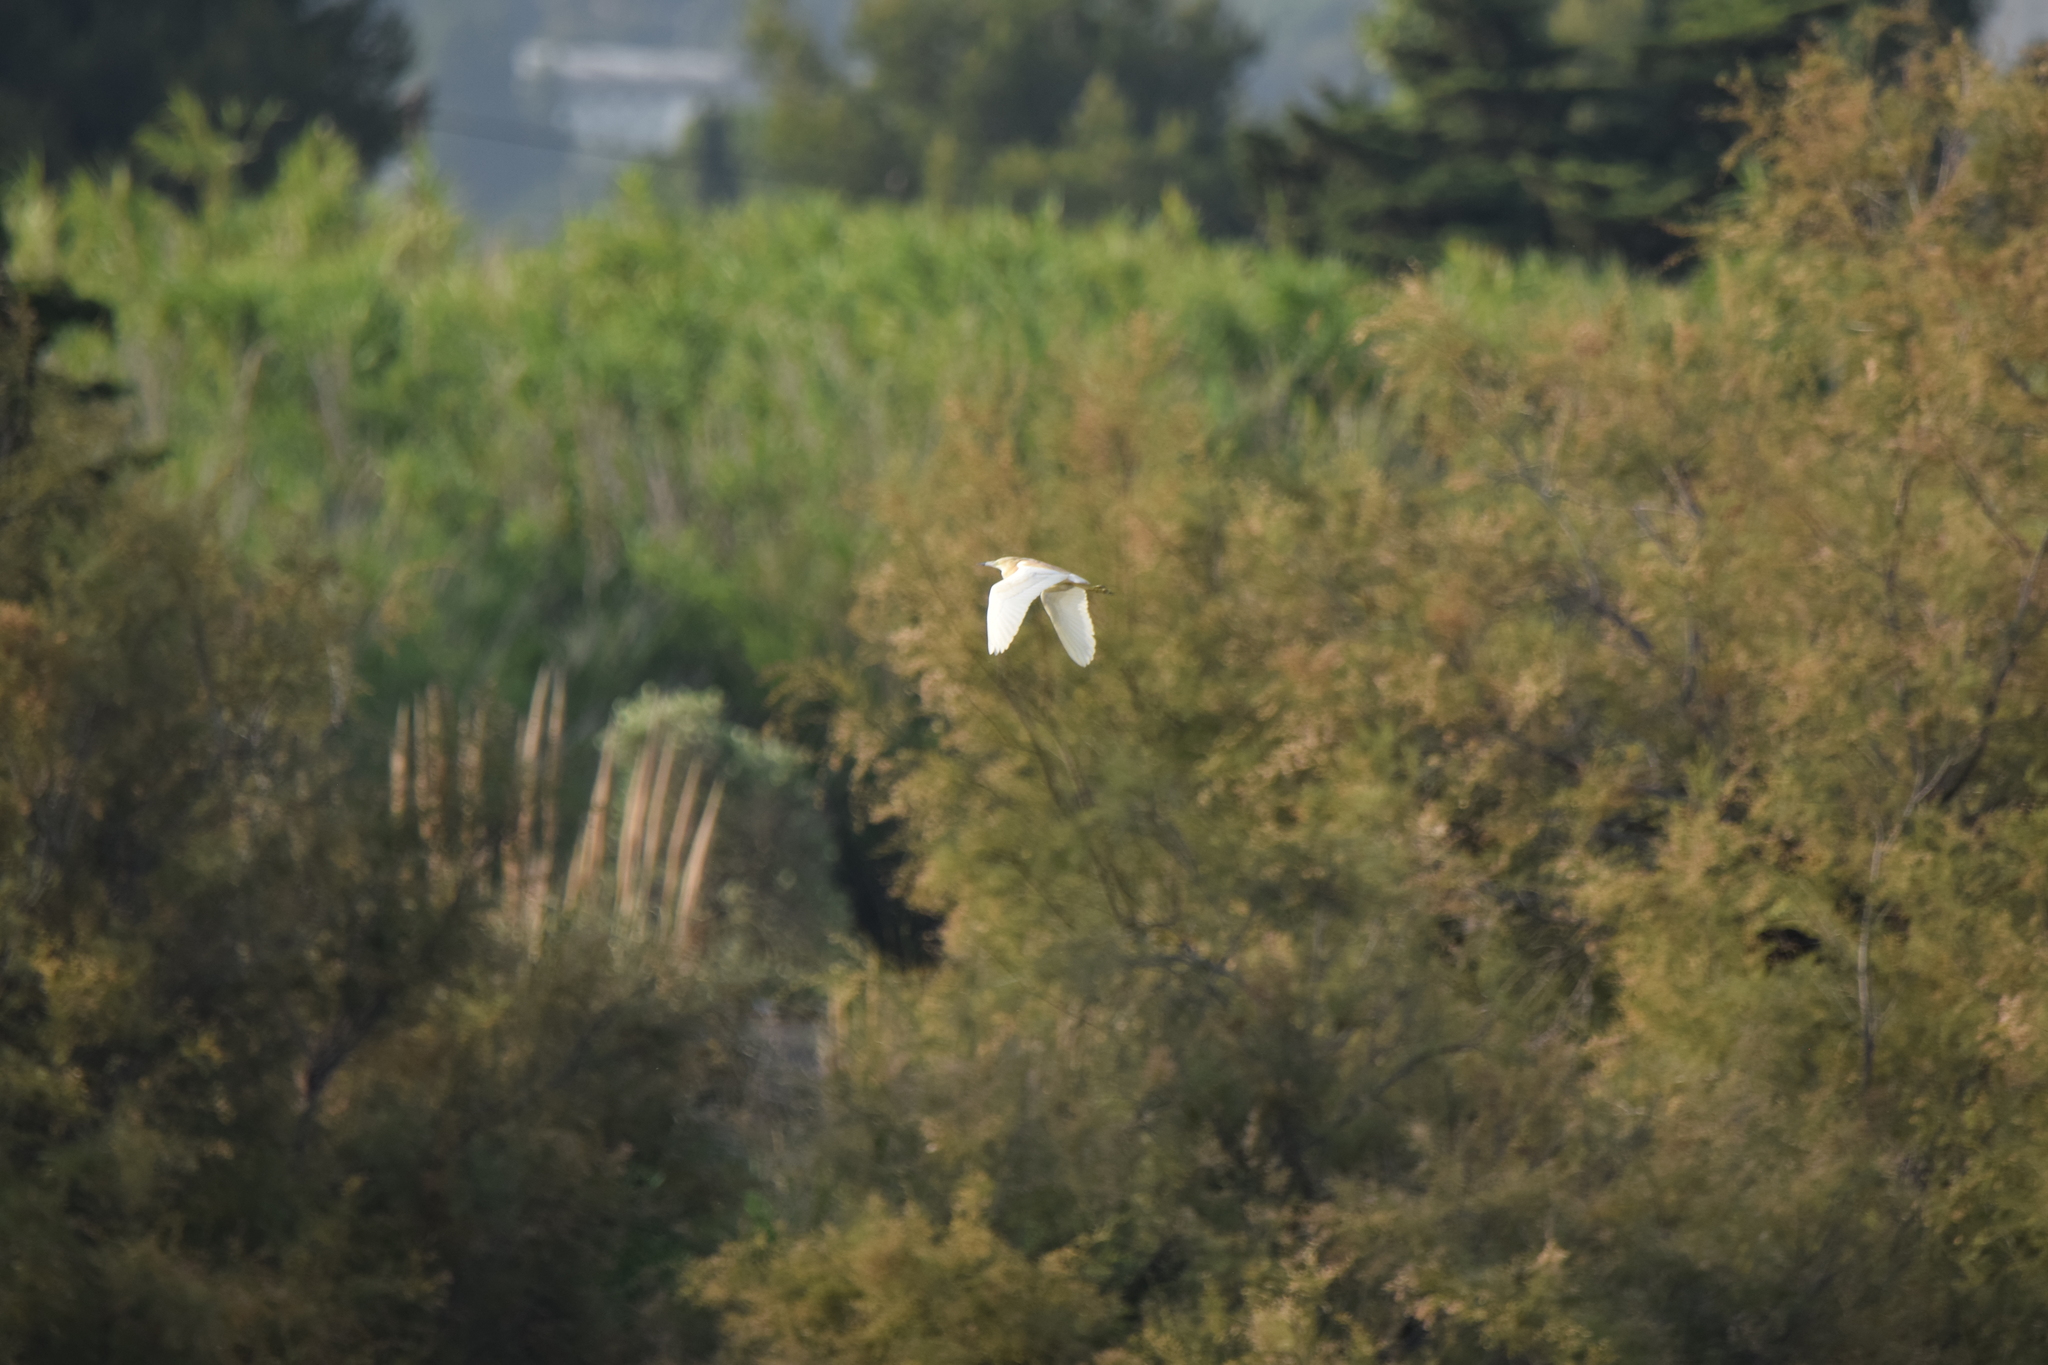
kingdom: Animalia
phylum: Chordata
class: Aves
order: Pelecaniformes
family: Ardeidae
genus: Ardeola
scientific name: Ardeola ralloides
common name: Squacco heron
